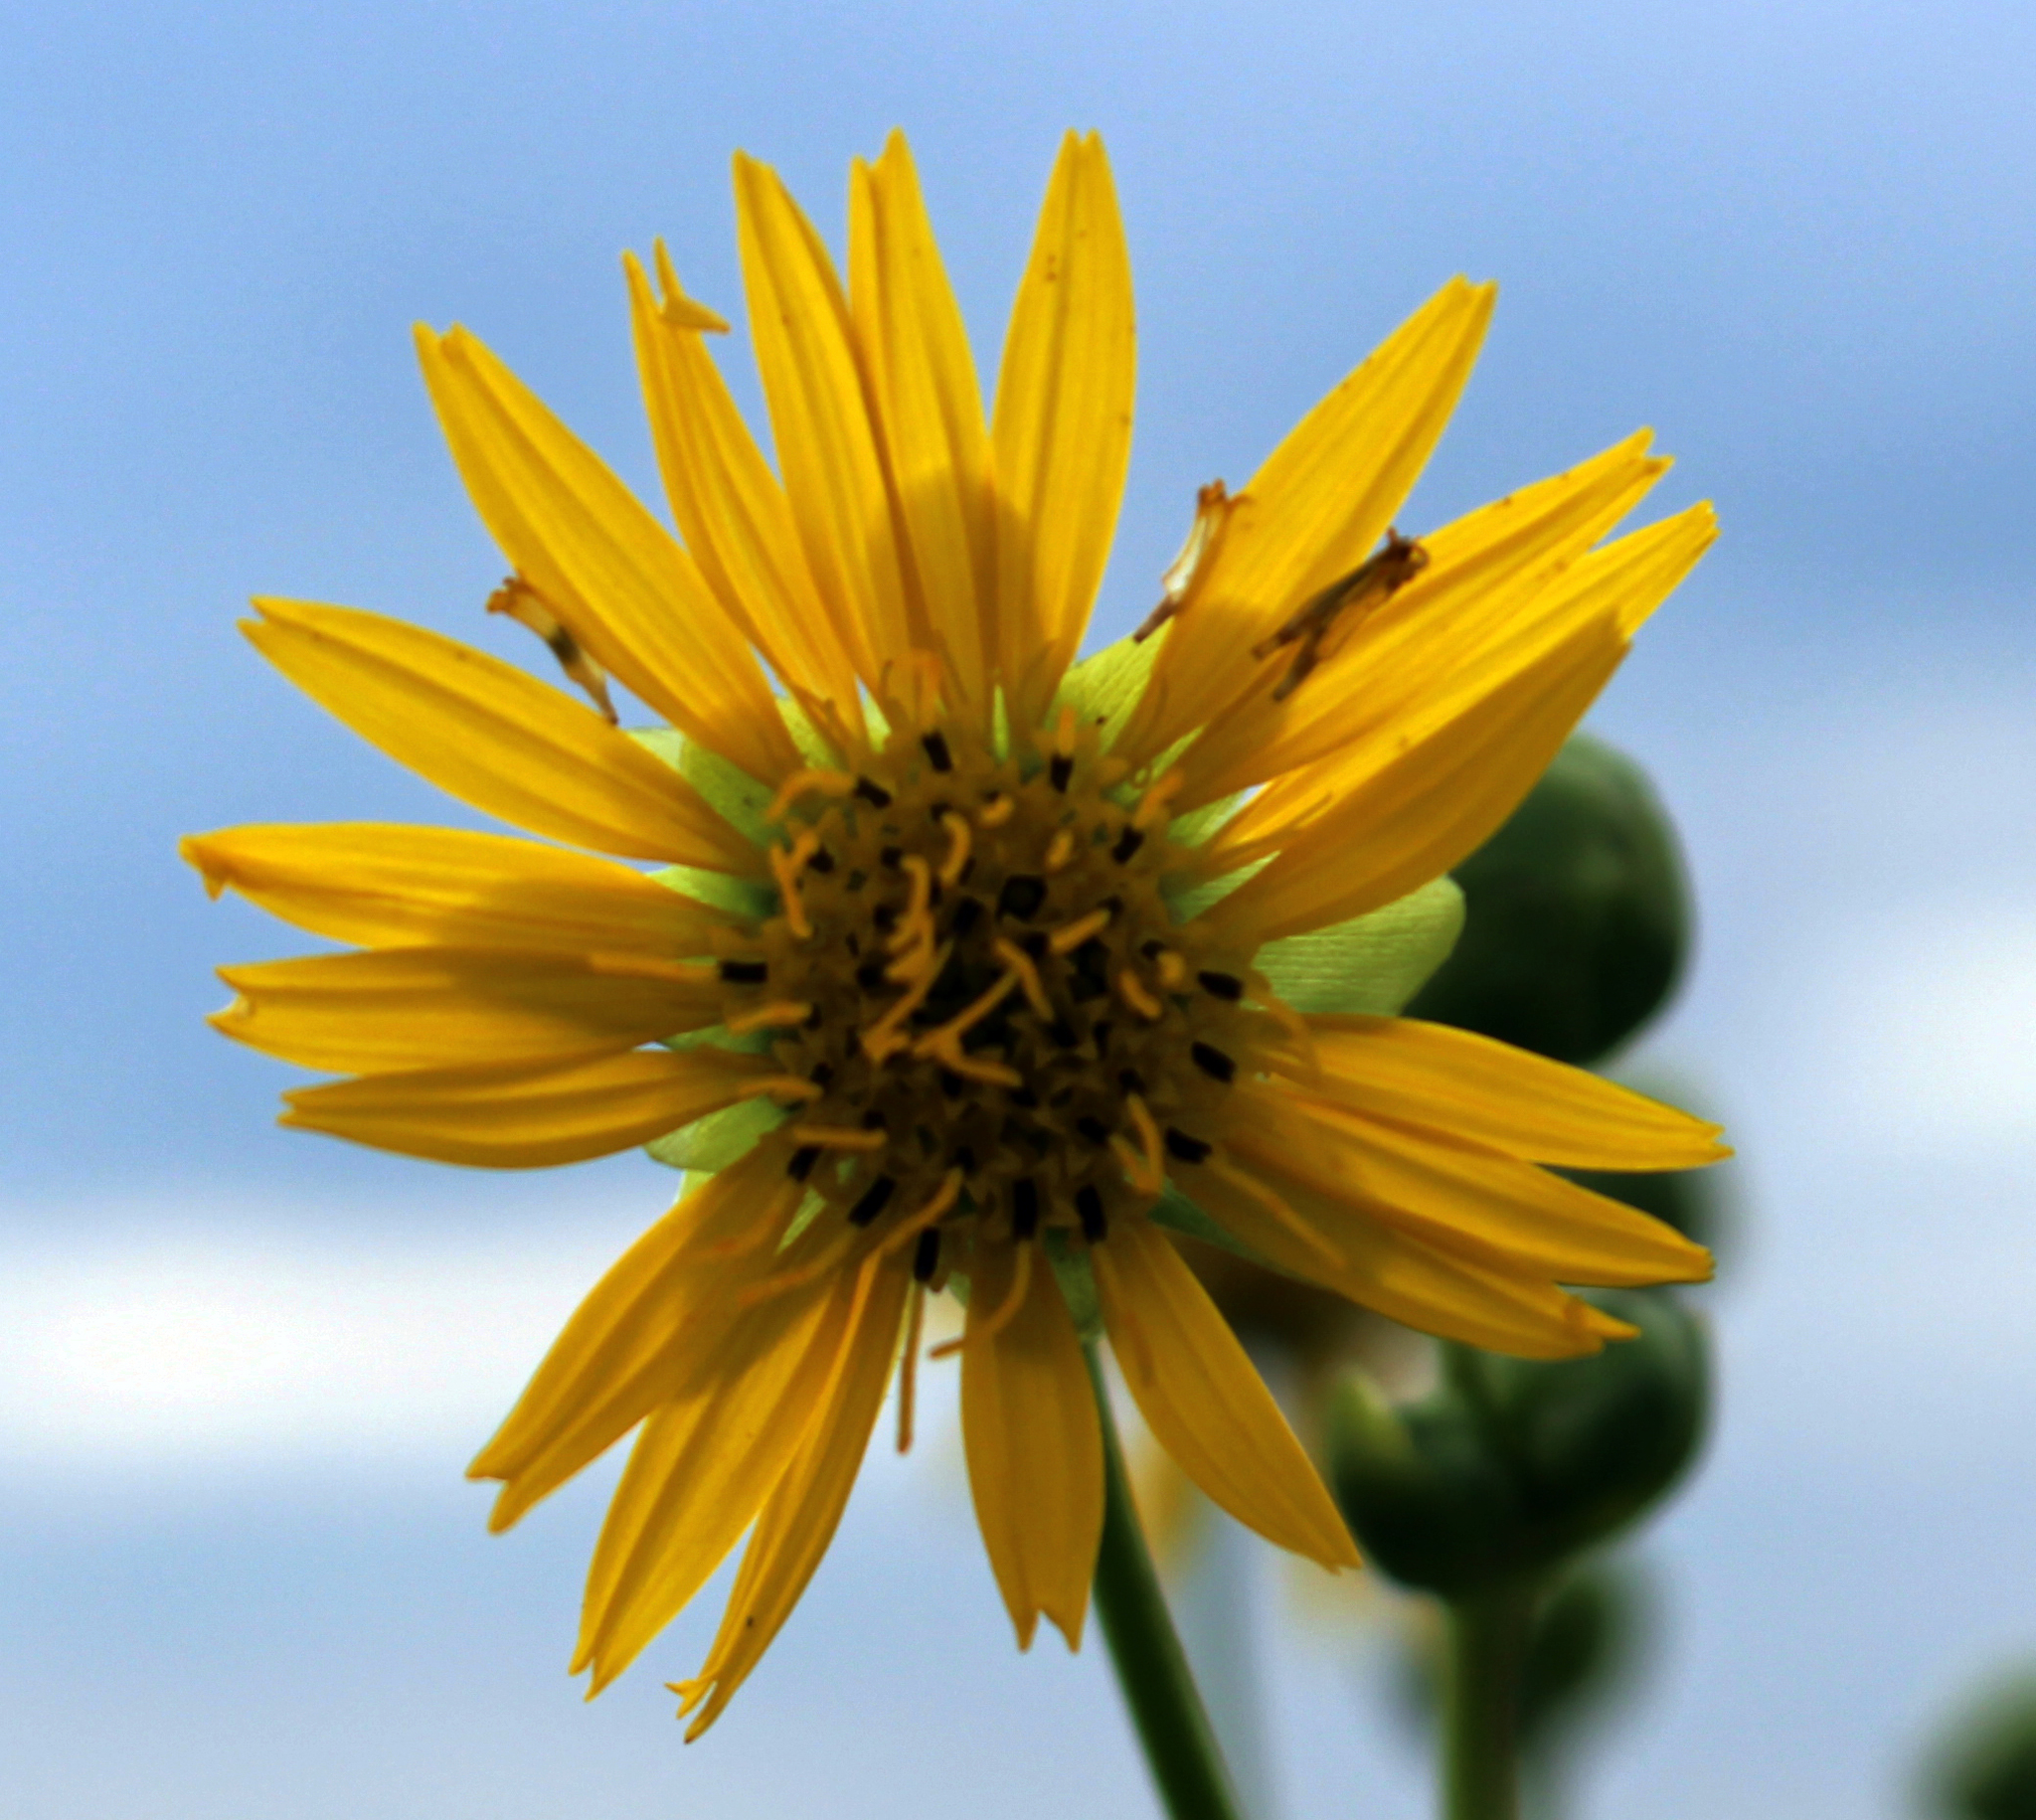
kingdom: Plantae
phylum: Tracheophyta
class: Magnoliopsida
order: Asterales
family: Asteraceae
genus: Silphium
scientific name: Silphium terebinthinaceum
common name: Basal-leaf rosinweed
